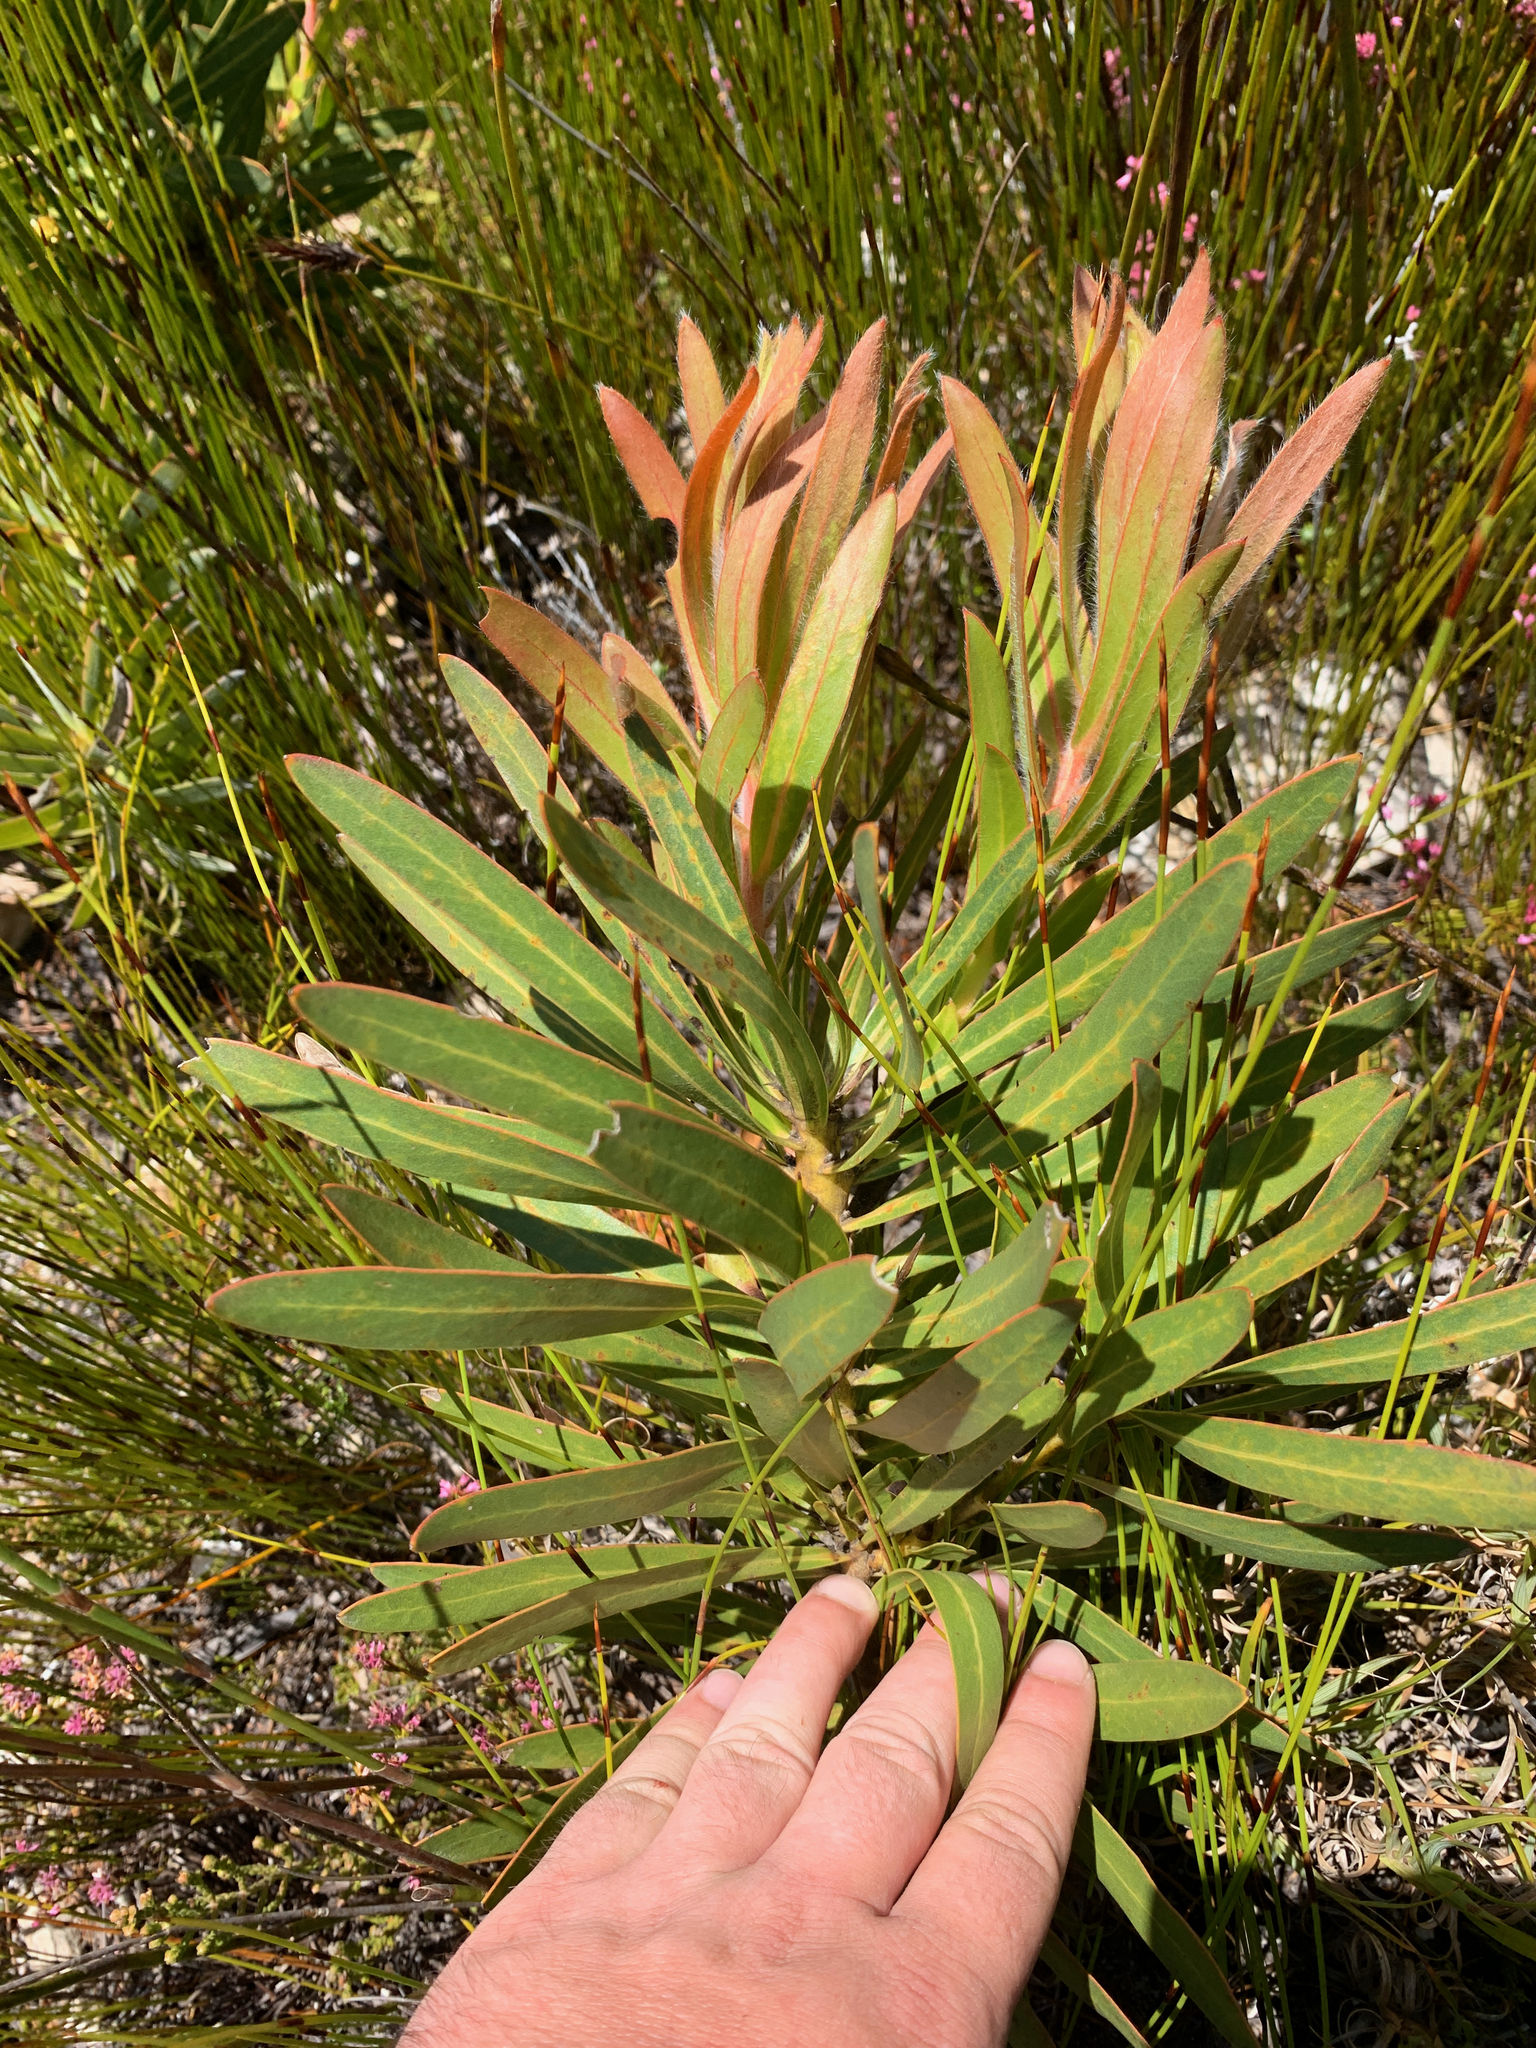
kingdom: Plantae
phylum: Tracheophyta
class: Magnoliopsida
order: Proteales
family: Proteaceae
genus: Protea
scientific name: Protea lepidocarpodendron
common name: Black-bearded protea
